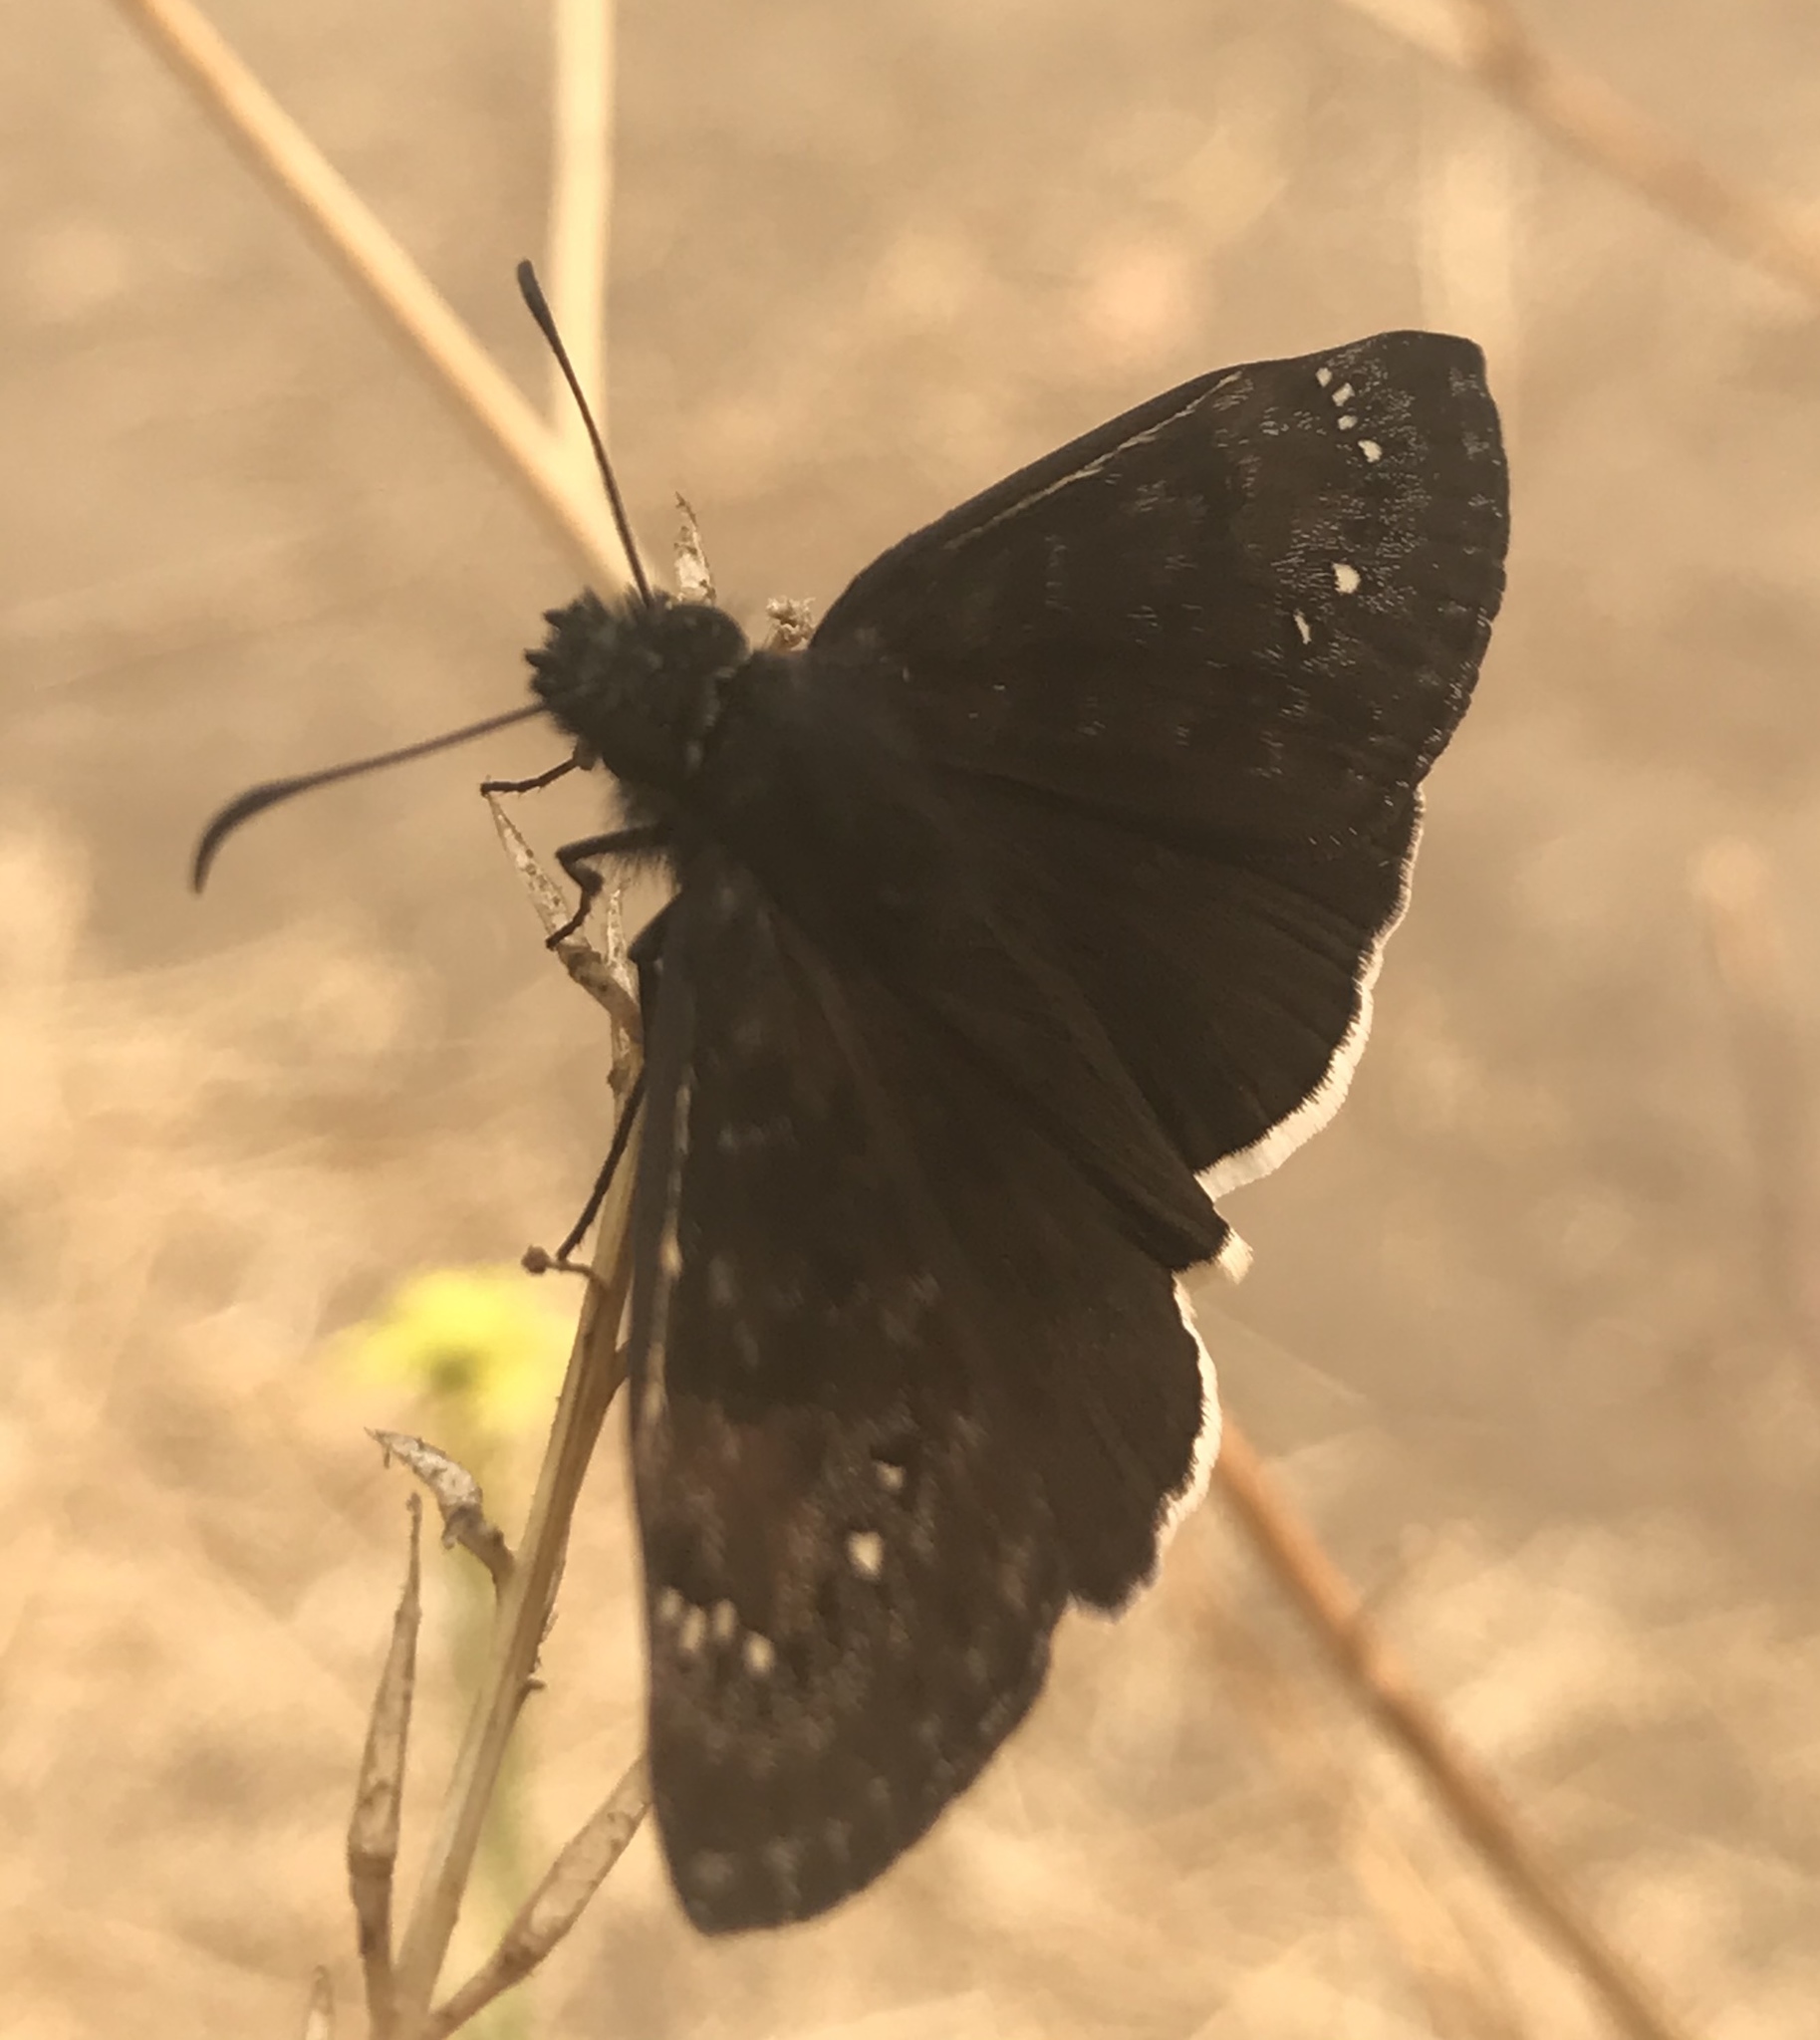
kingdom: Animalia
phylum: Arthropoda
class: Insecta
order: Lepidoptera
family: Hesperiidae
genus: Erynnis
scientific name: Erynnis tristis
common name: Mournful duskywing
